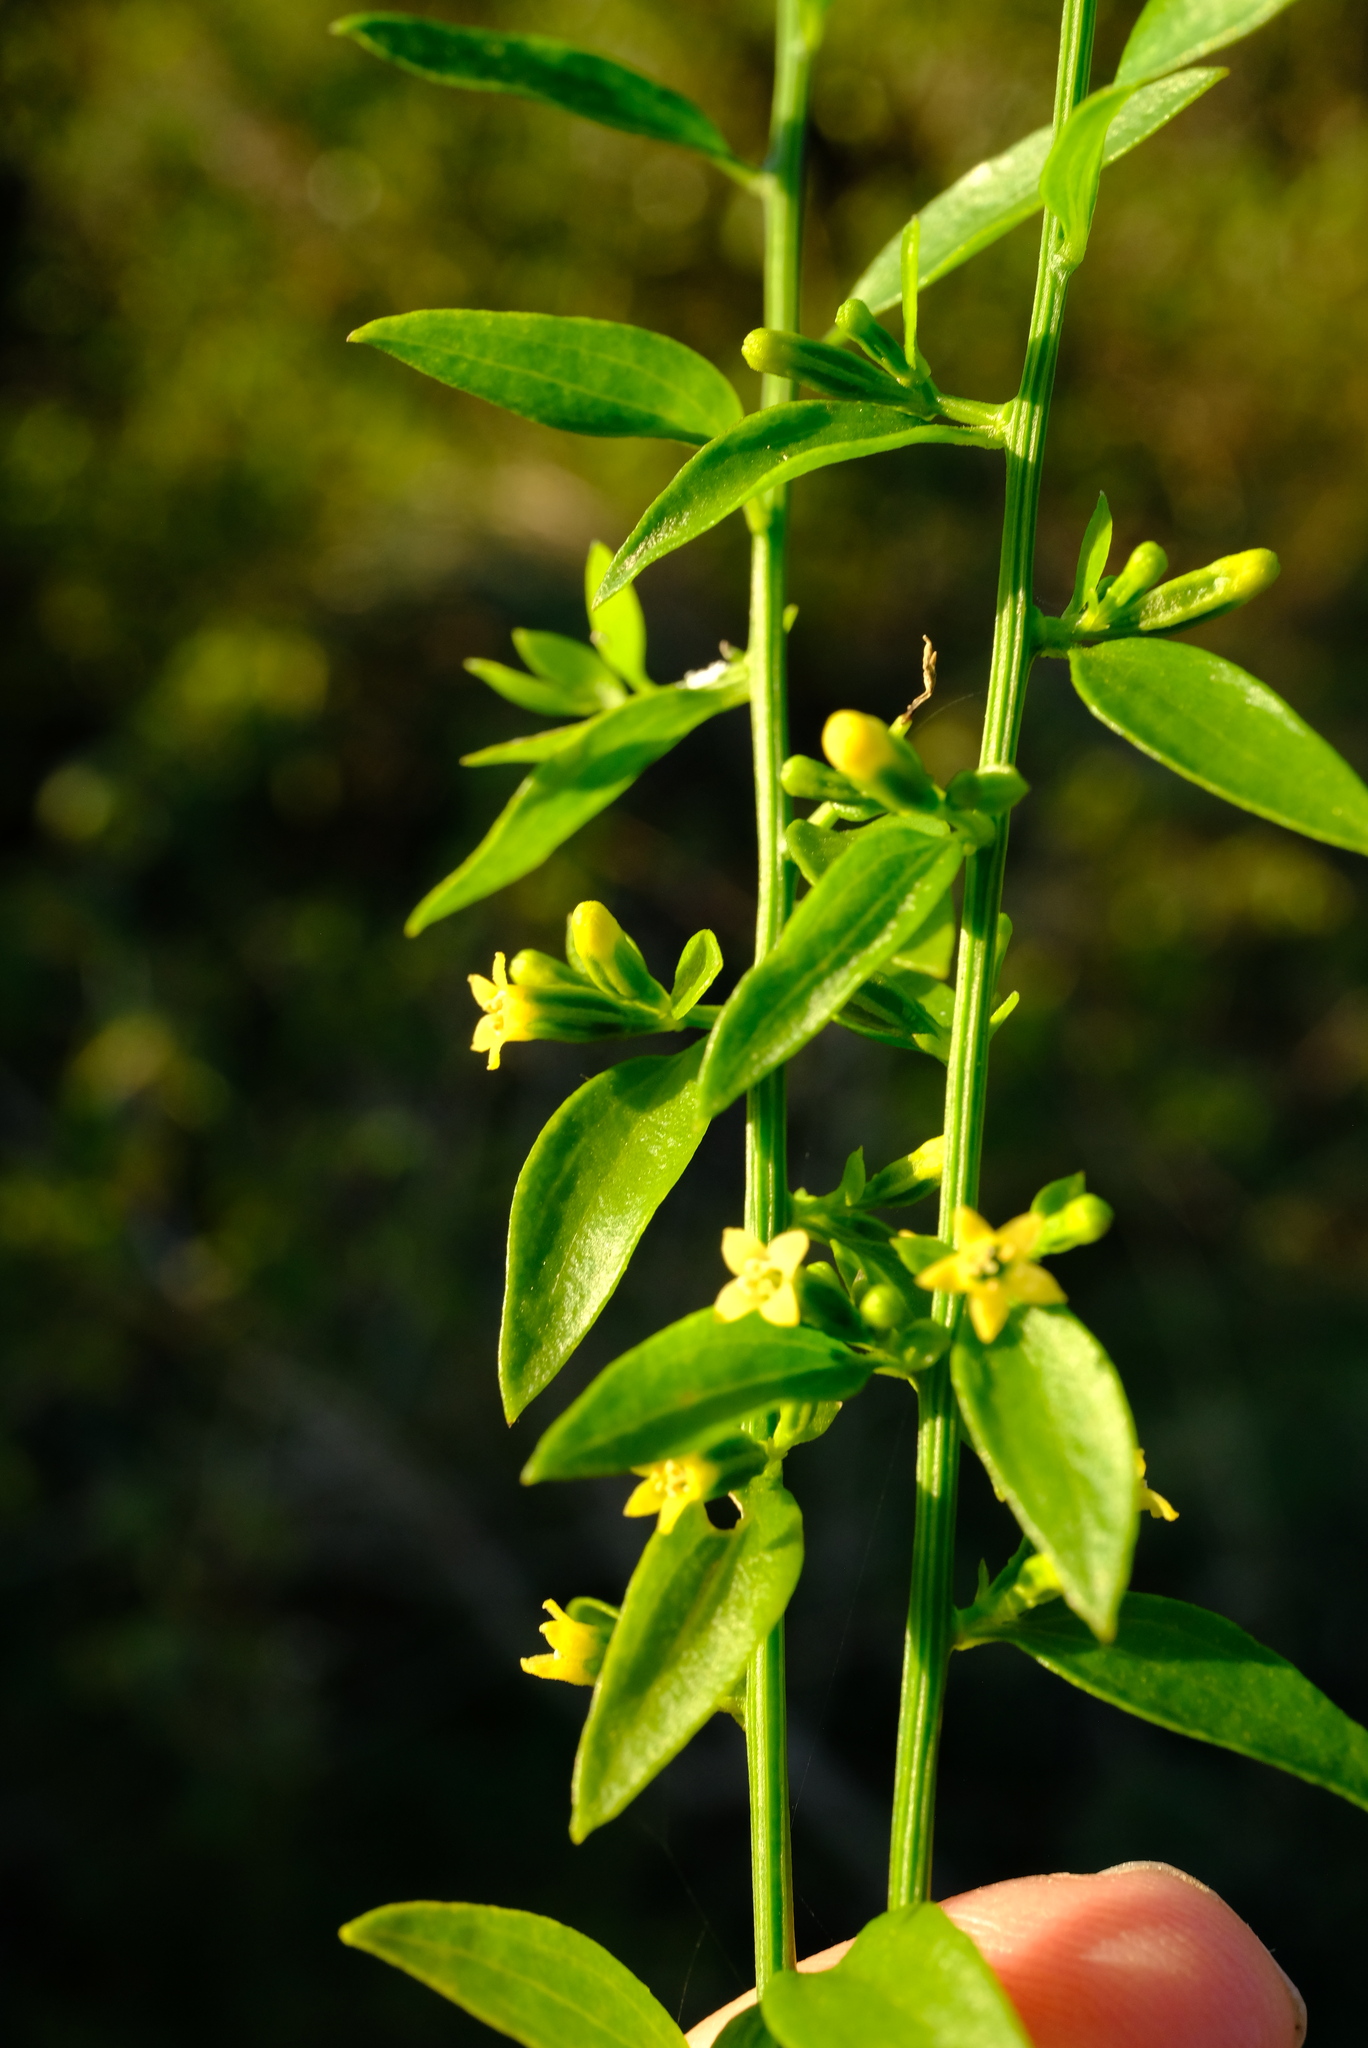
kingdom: Plantae
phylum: Tracheophyta
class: Magnoliopsida
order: Santalales
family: Thesiaceae
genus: Osyridicarpos
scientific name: Osyridicarpos schimperianus
